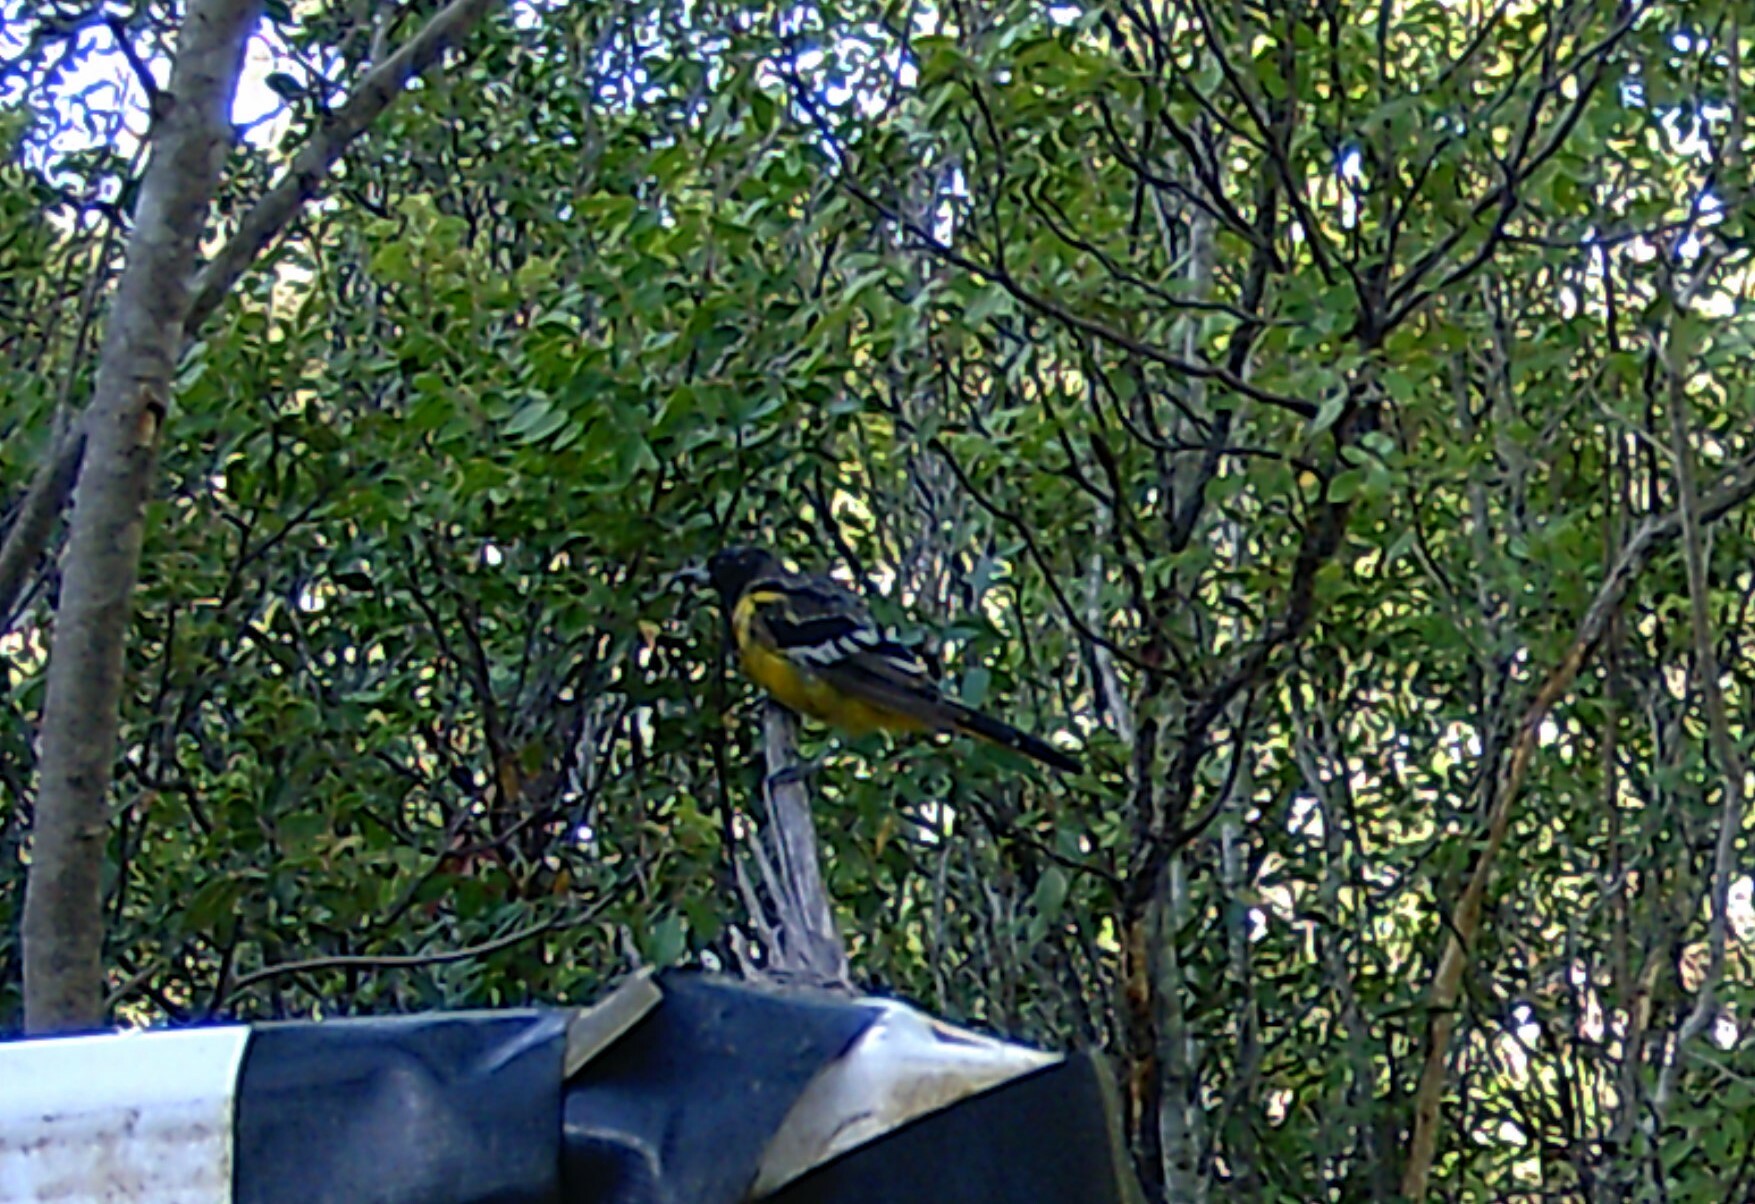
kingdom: Animalia
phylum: Chordata
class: Aves
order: Passeriformes
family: Icteridae
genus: Icterus
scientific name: Icterus parisorum
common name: Scott's oriole
